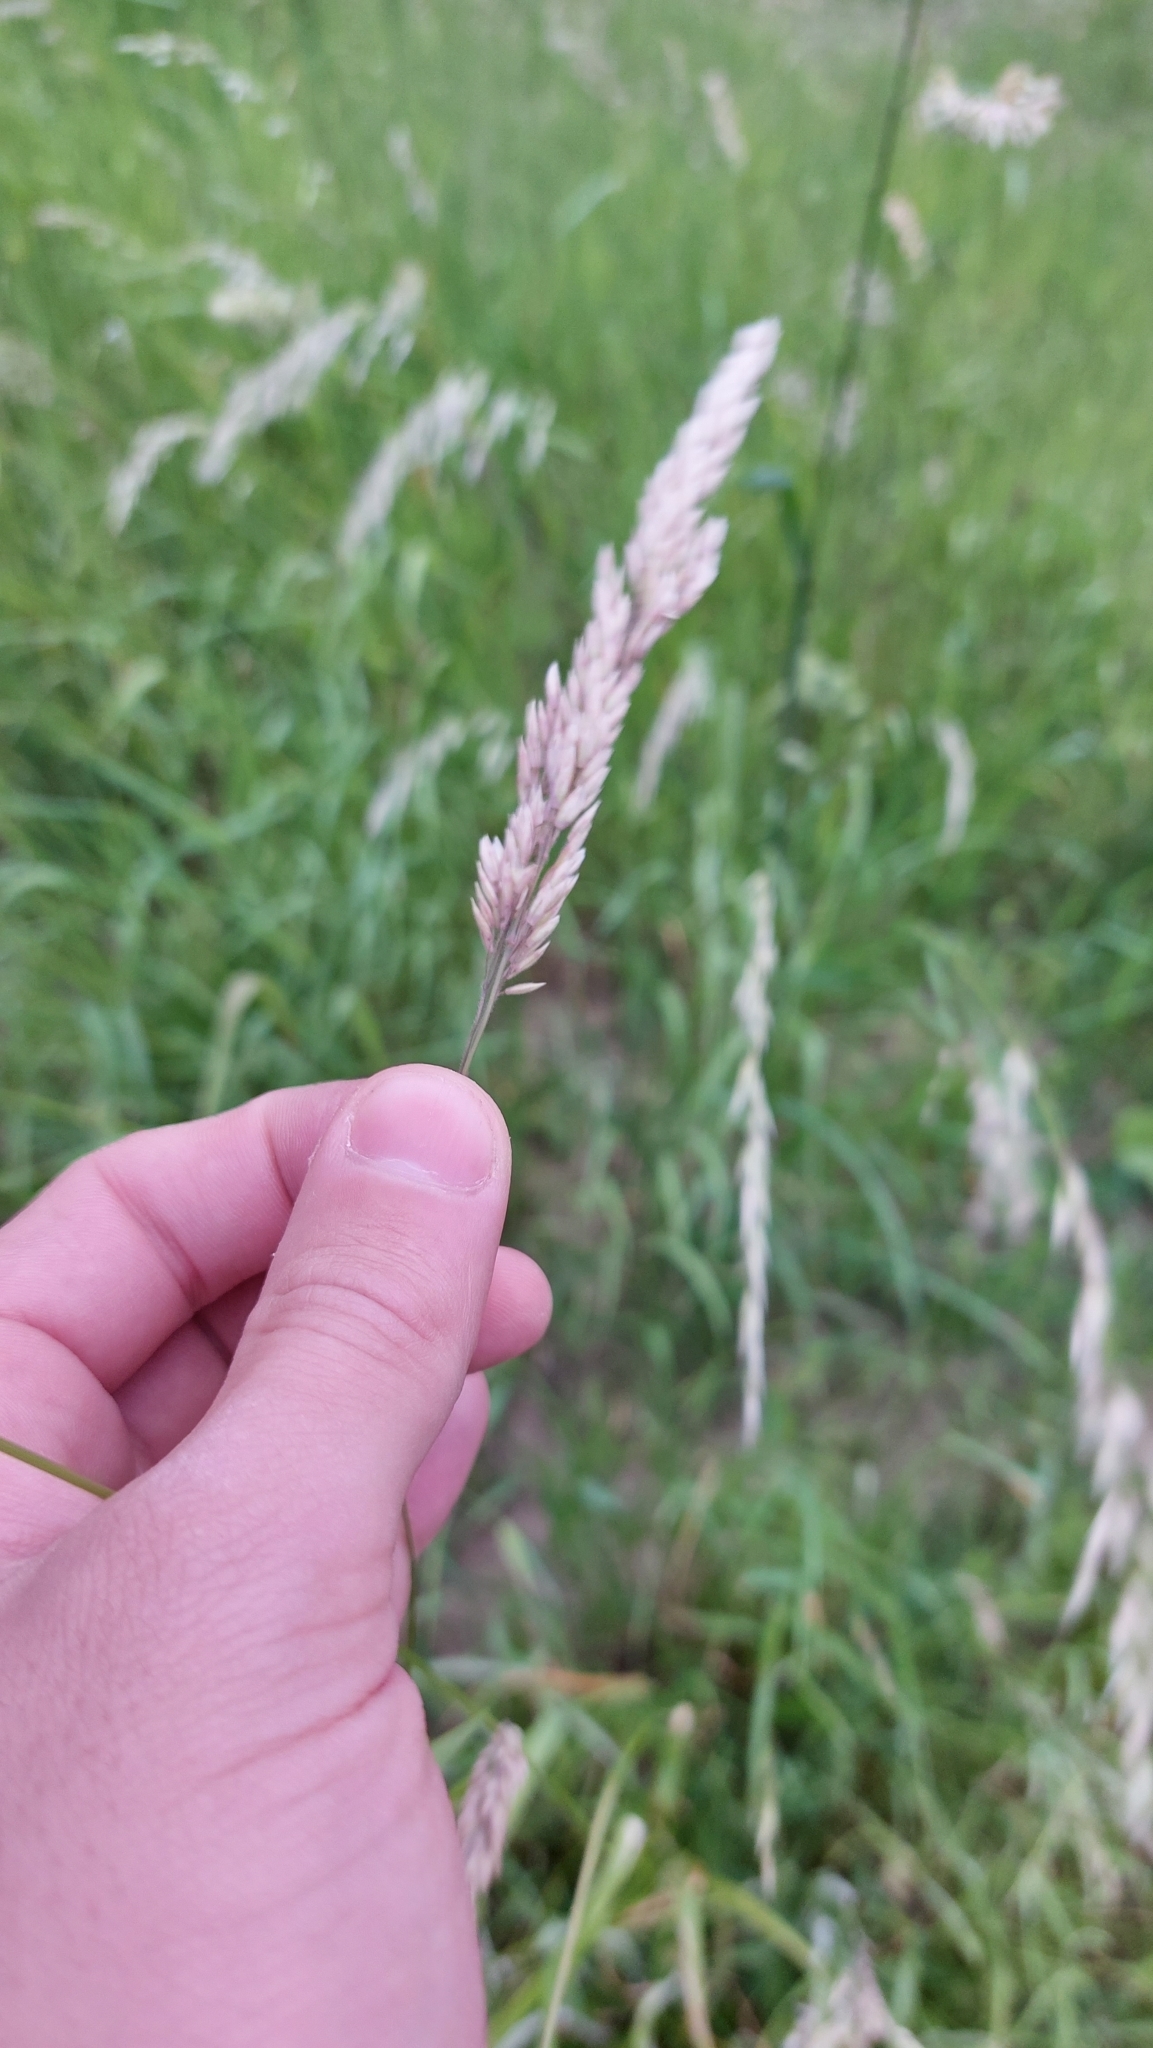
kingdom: Plantae
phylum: Tracheophyta
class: Liliopsida
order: Poales
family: Poaceae
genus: Holcus
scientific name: Holcus lanatus
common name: Yorkshire-fog
